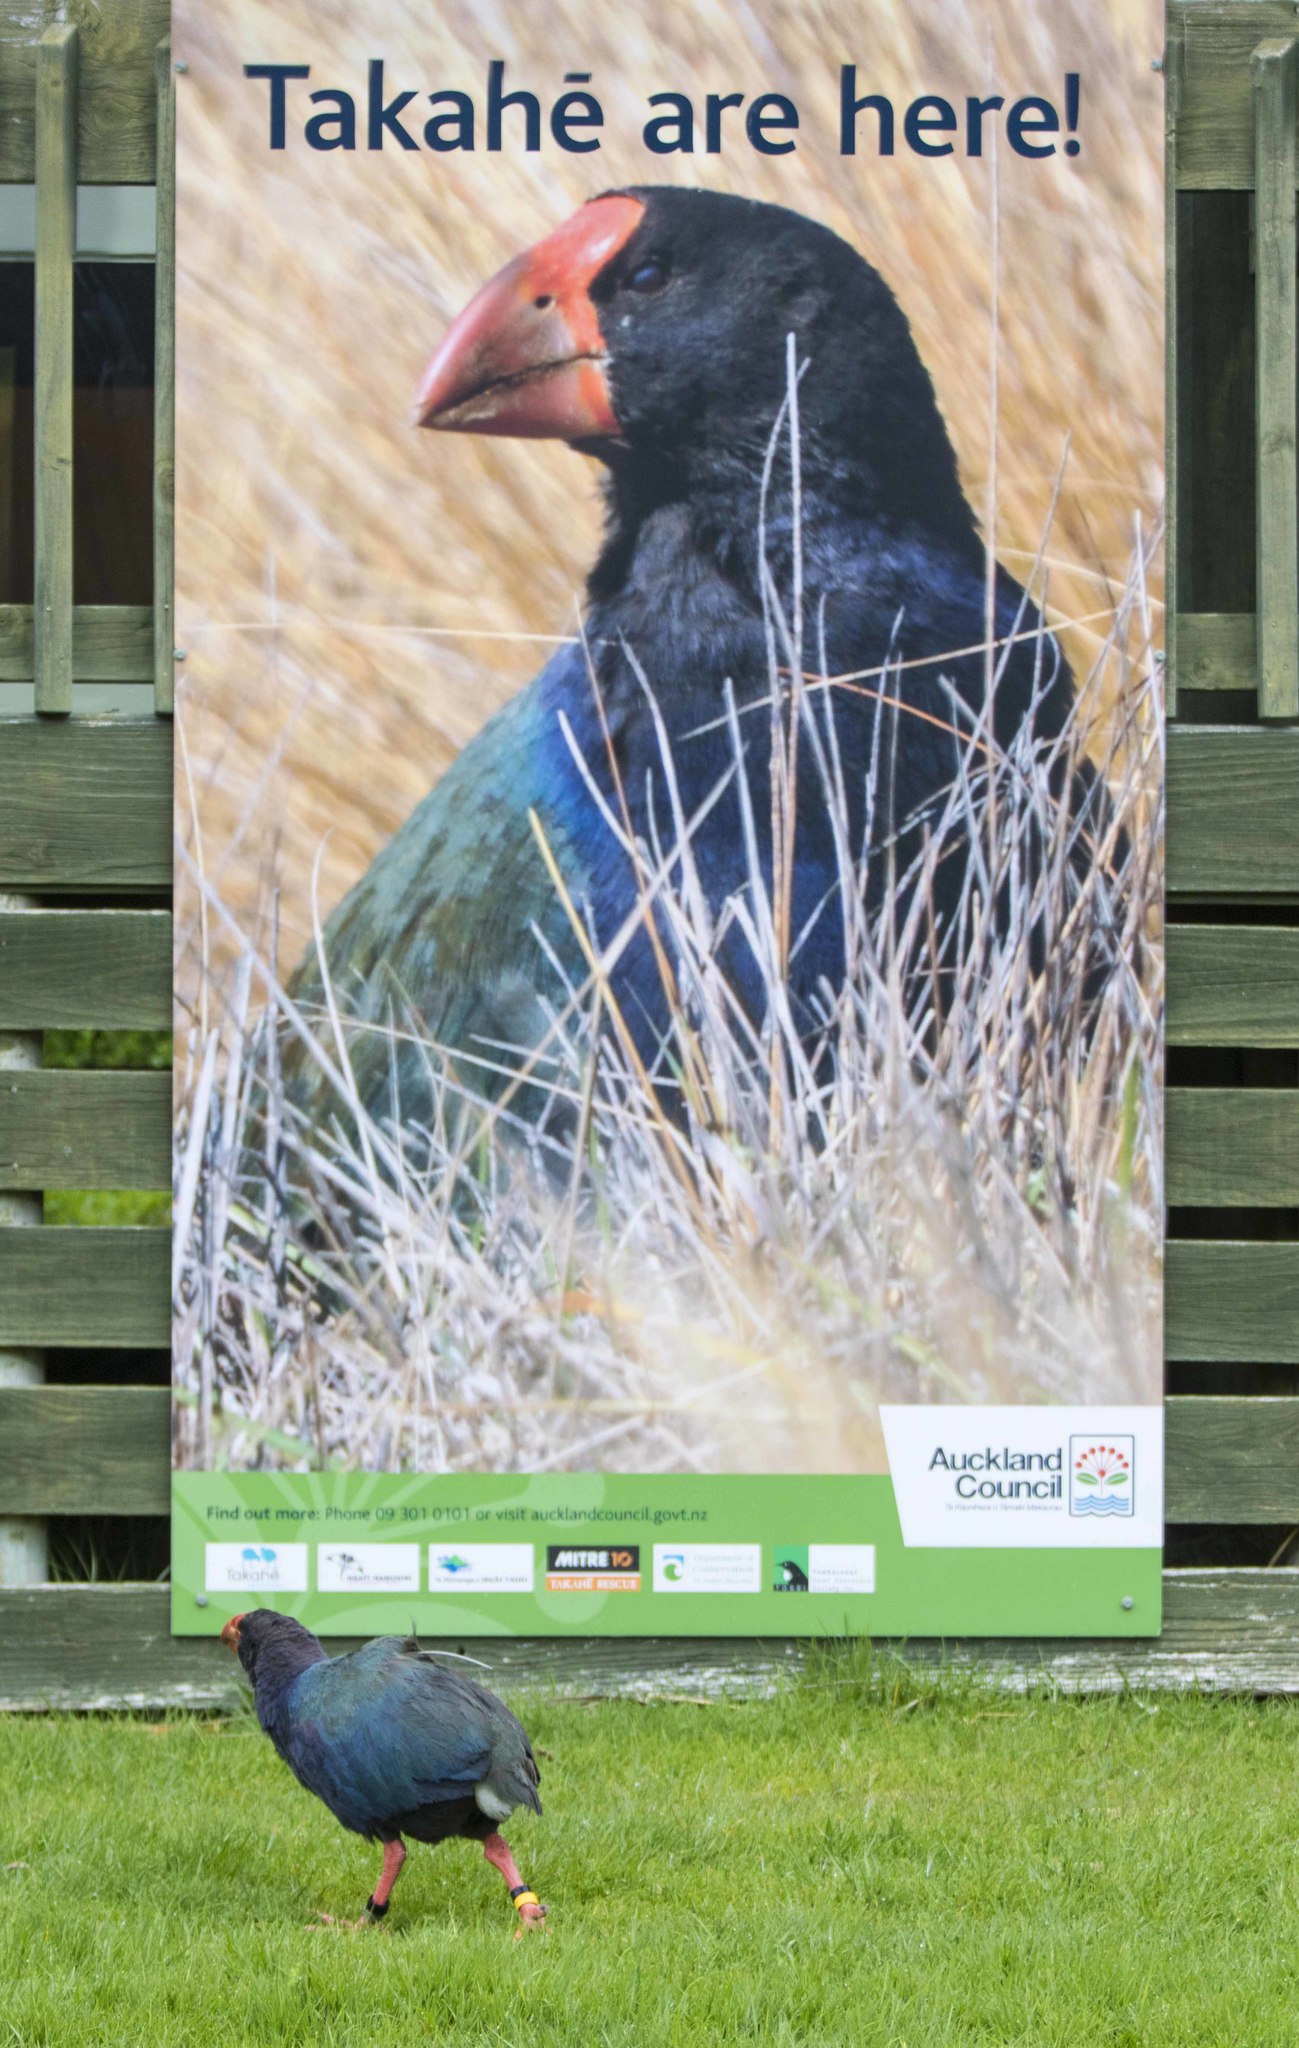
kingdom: Animalia
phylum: Chordata
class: Aves
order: Gruiformes
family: Rallidae
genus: Porphyrio
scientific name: Porphyrio hochstetteri
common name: South island takahe
